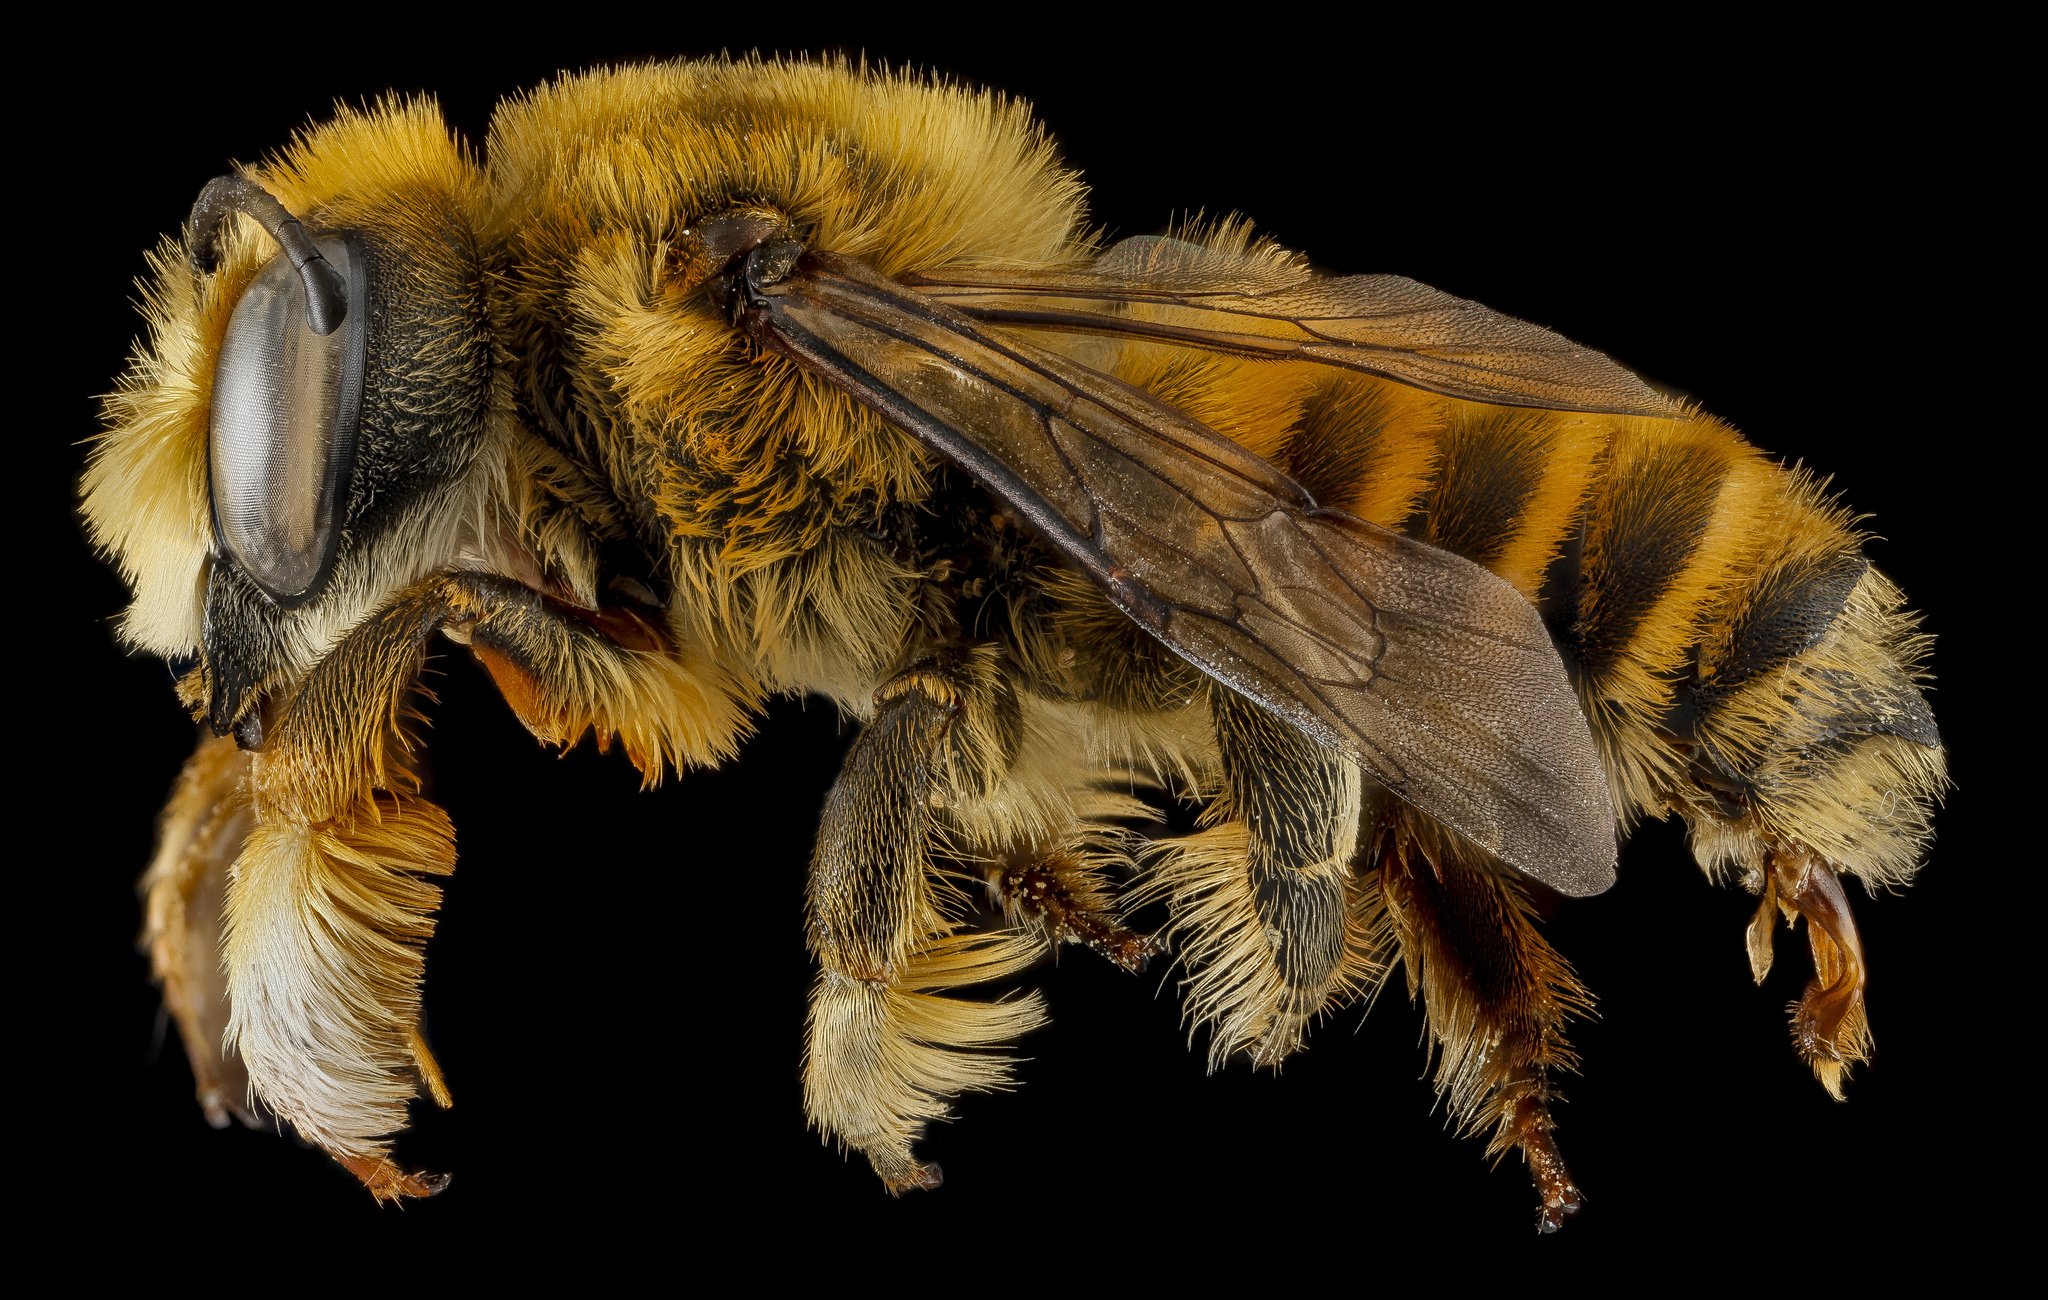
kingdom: Animalia
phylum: Arthropoda
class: Insecta
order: Hymenoptera
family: Megachilidae
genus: Megachile
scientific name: Megachile fortis
